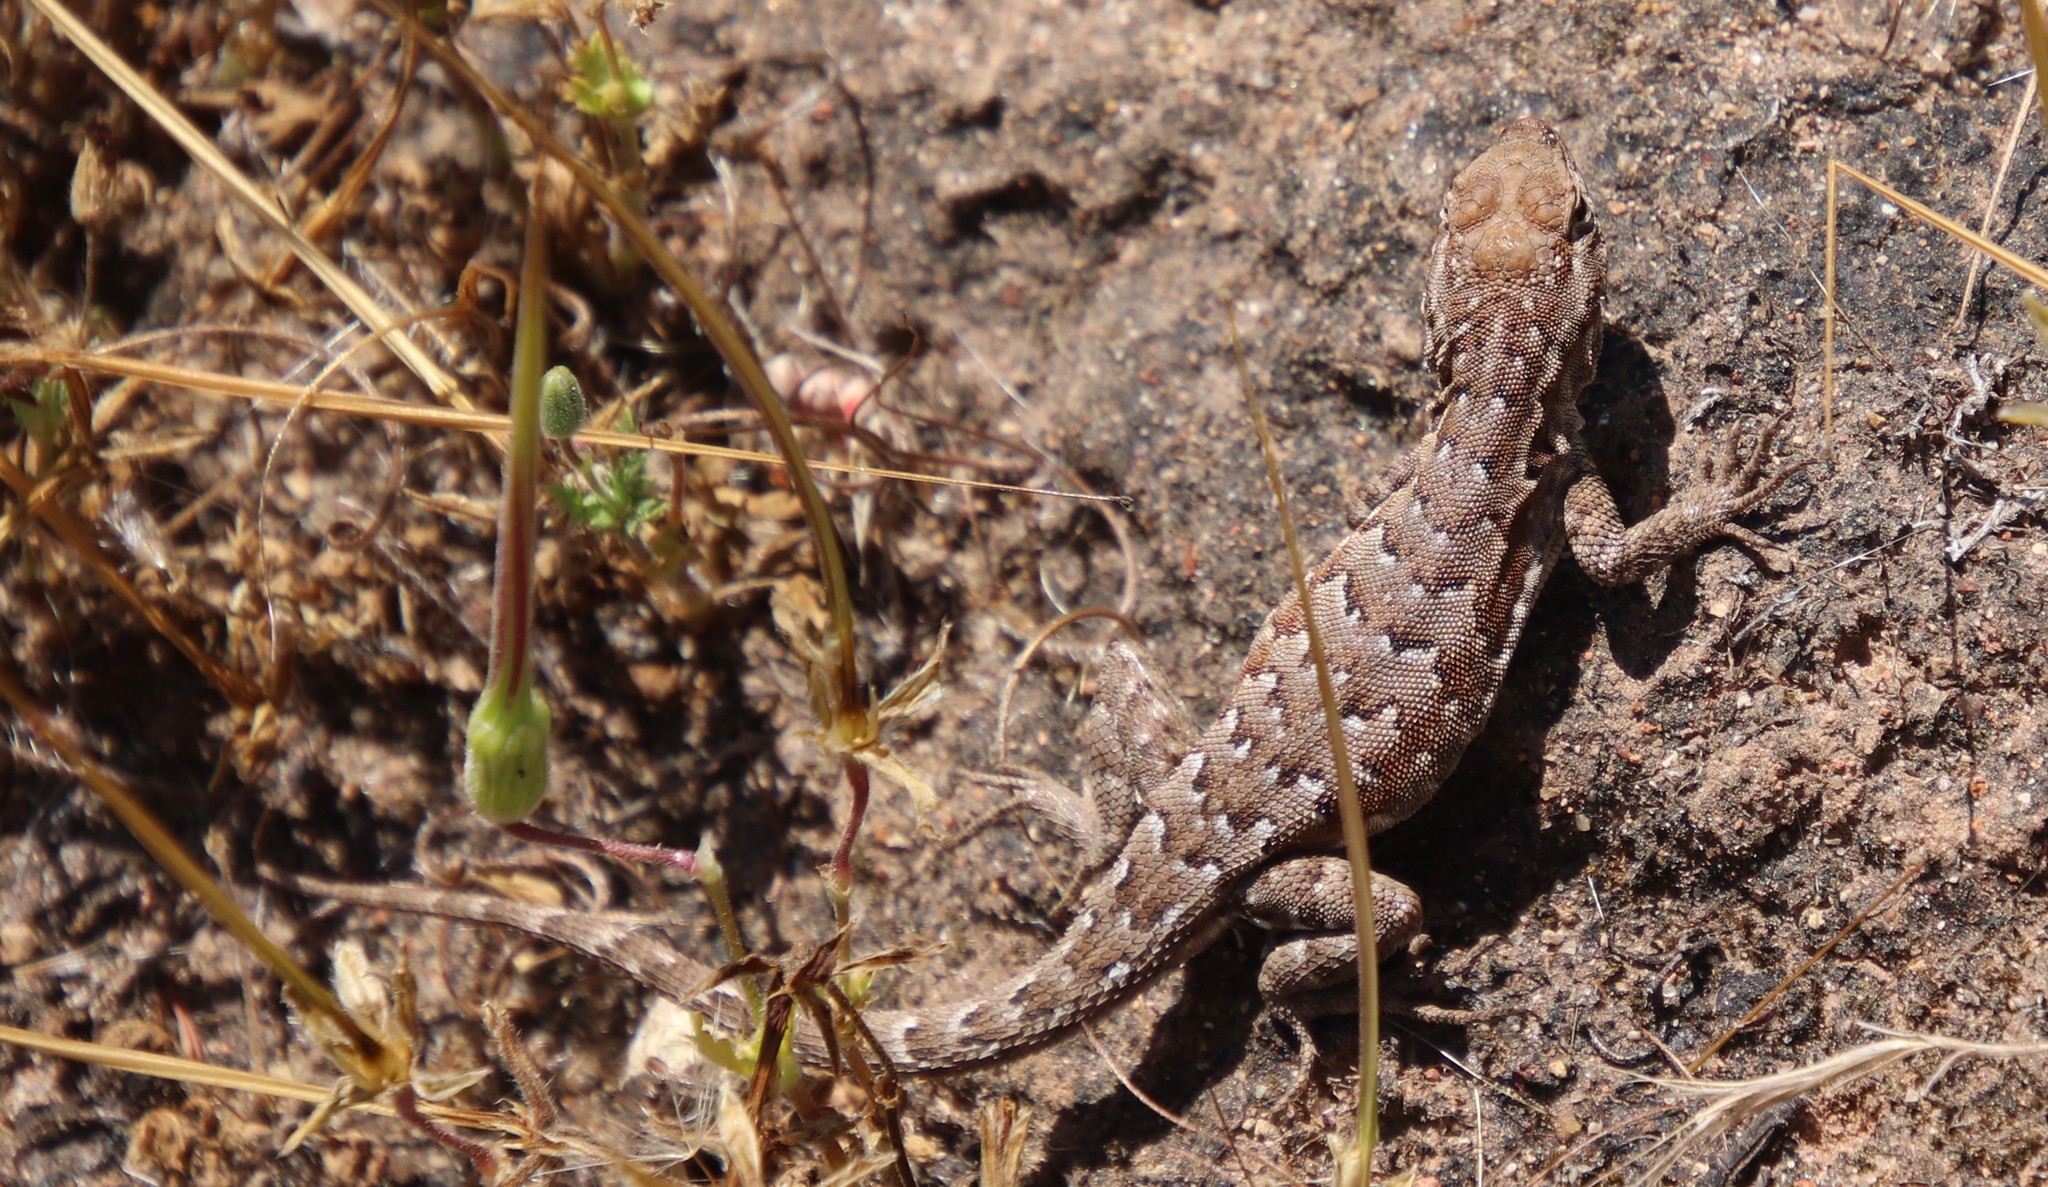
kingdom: Animalia
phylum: Chordata
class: Squamata
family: Phrynosomatidae
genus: Uta
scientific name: Uta stansburiana
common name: Side-blotched lizard
